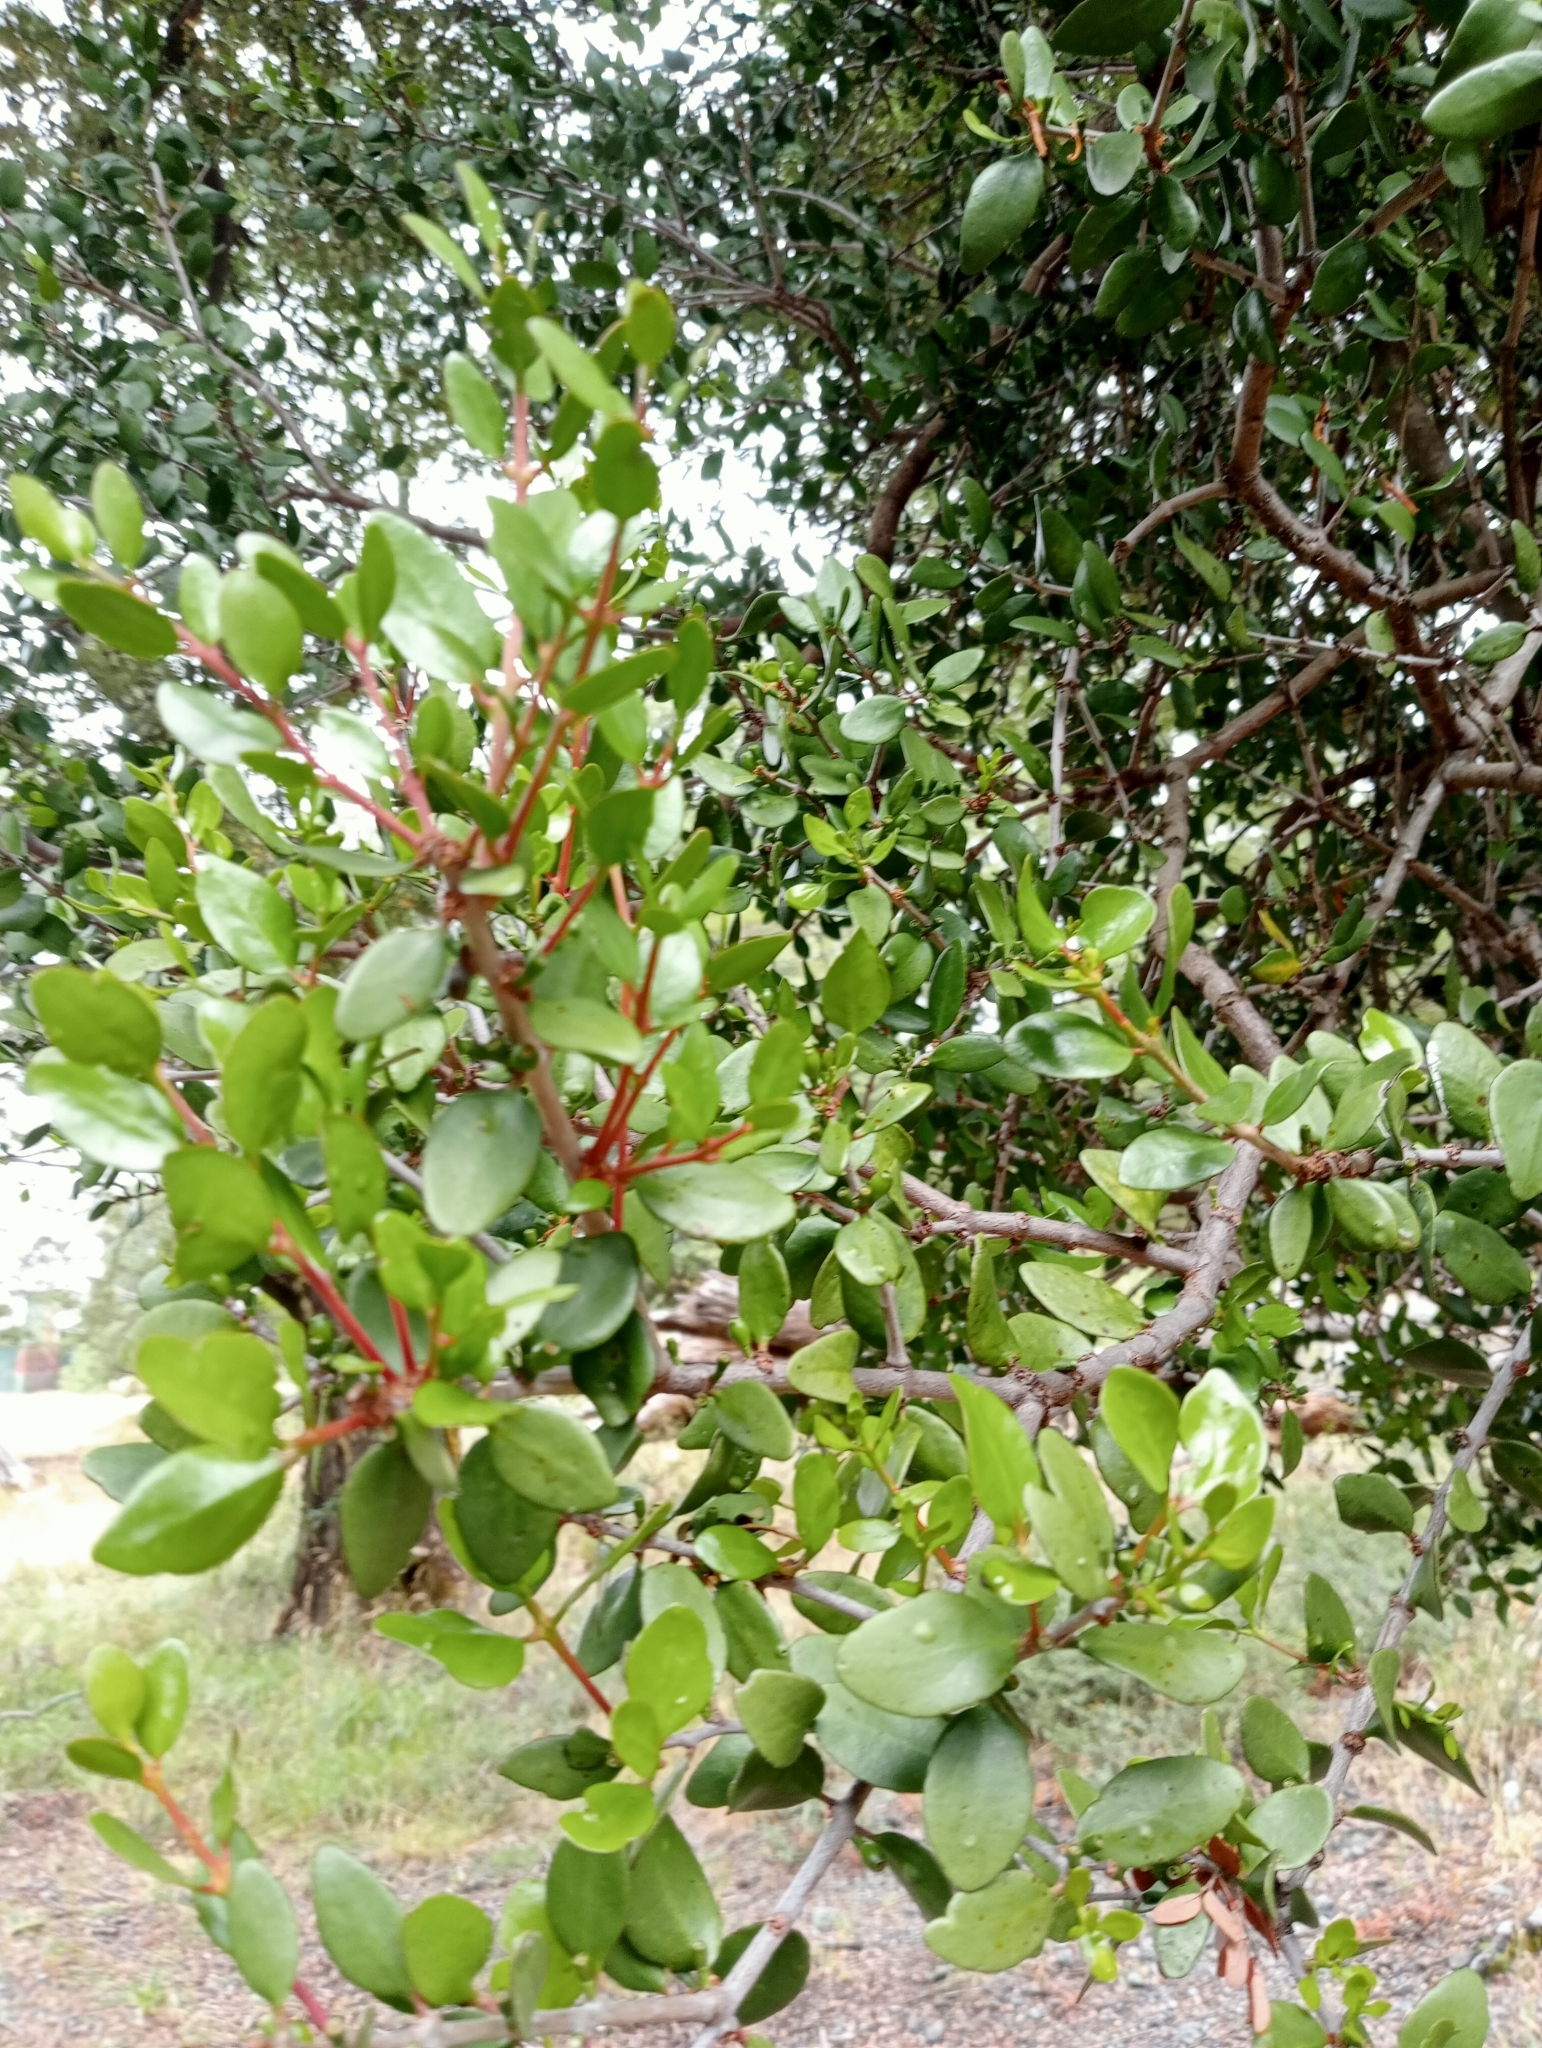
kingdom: Plantae
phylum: Tracheophyta
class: Magnoliopsida
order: Santalales
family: Loranthaceae
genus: Peraxilla
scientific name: Peraxilla tetrapetala
